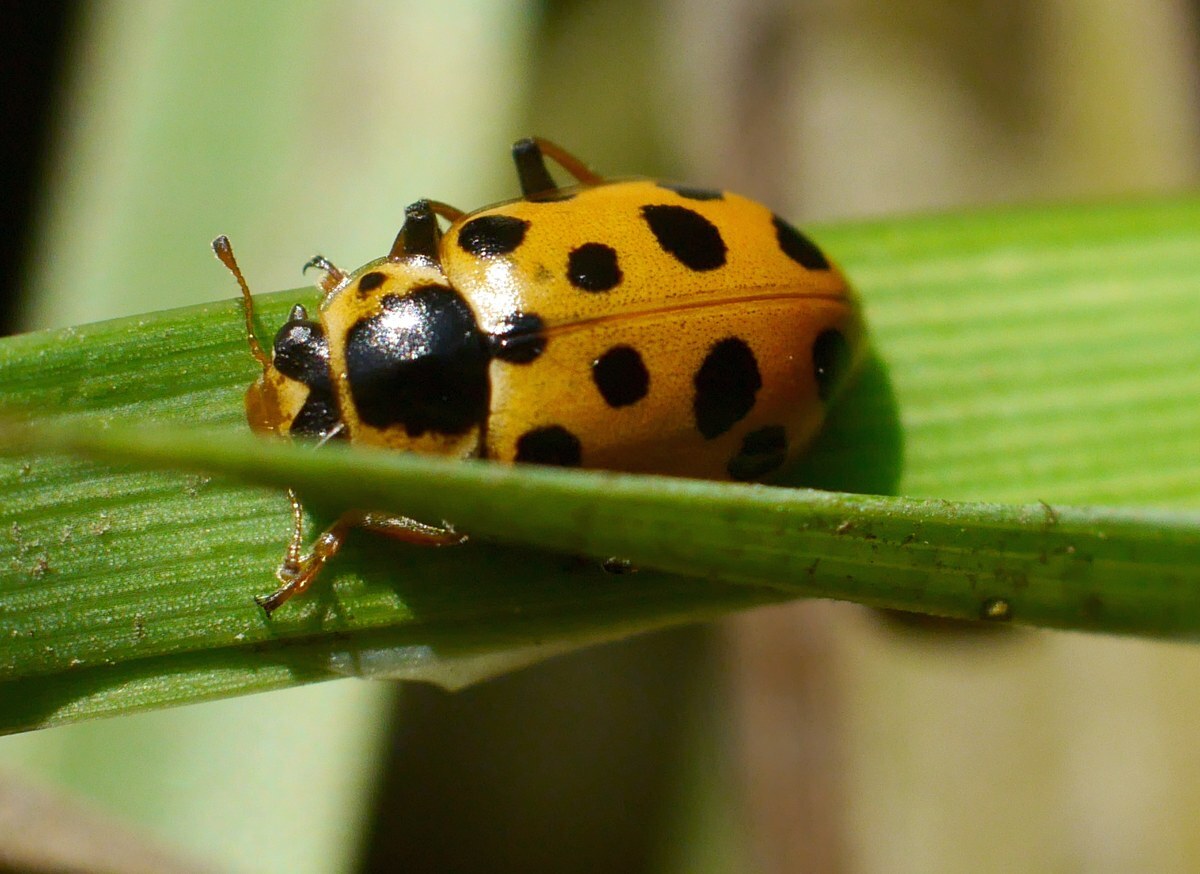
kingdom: Animalia
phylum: Arthropoda
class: Insecta
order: Coleoptera
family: Coccinellidae
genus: Hippodamia
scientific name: Hippodamia tredecimpunctata
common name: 13-spot ladybird
